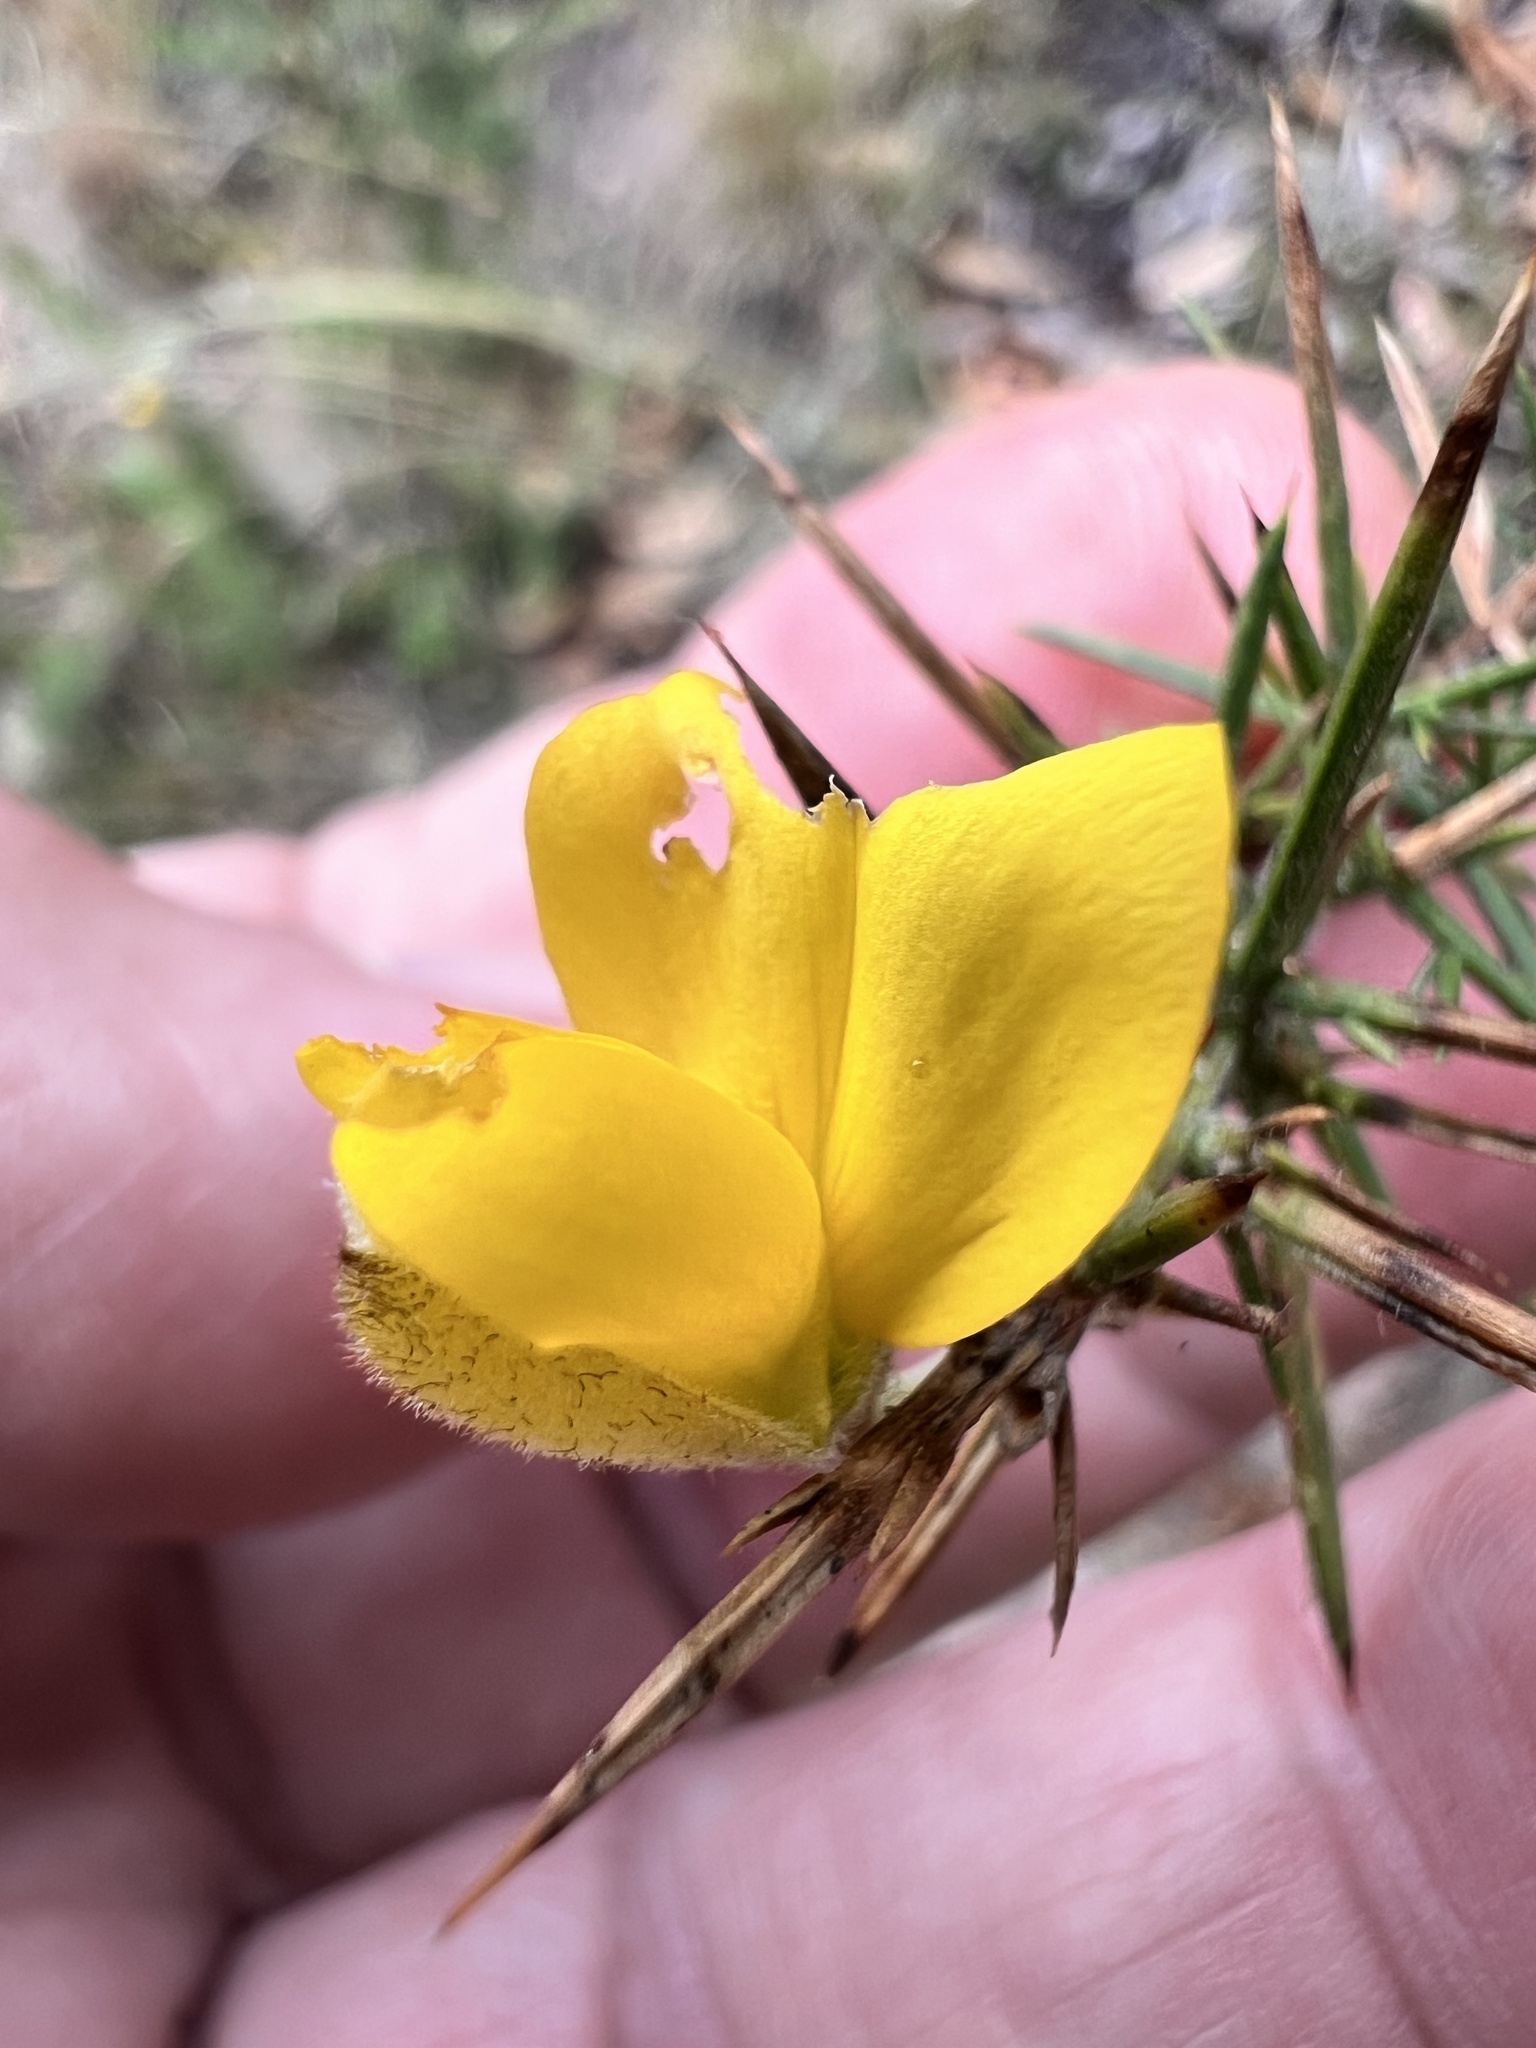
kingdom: Plantae
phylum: Tracheophyta
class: Magnoliopsida
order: Fabales
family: Fabaceae
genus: Ulex
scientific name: Ulex europaeus
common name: Common gorse
